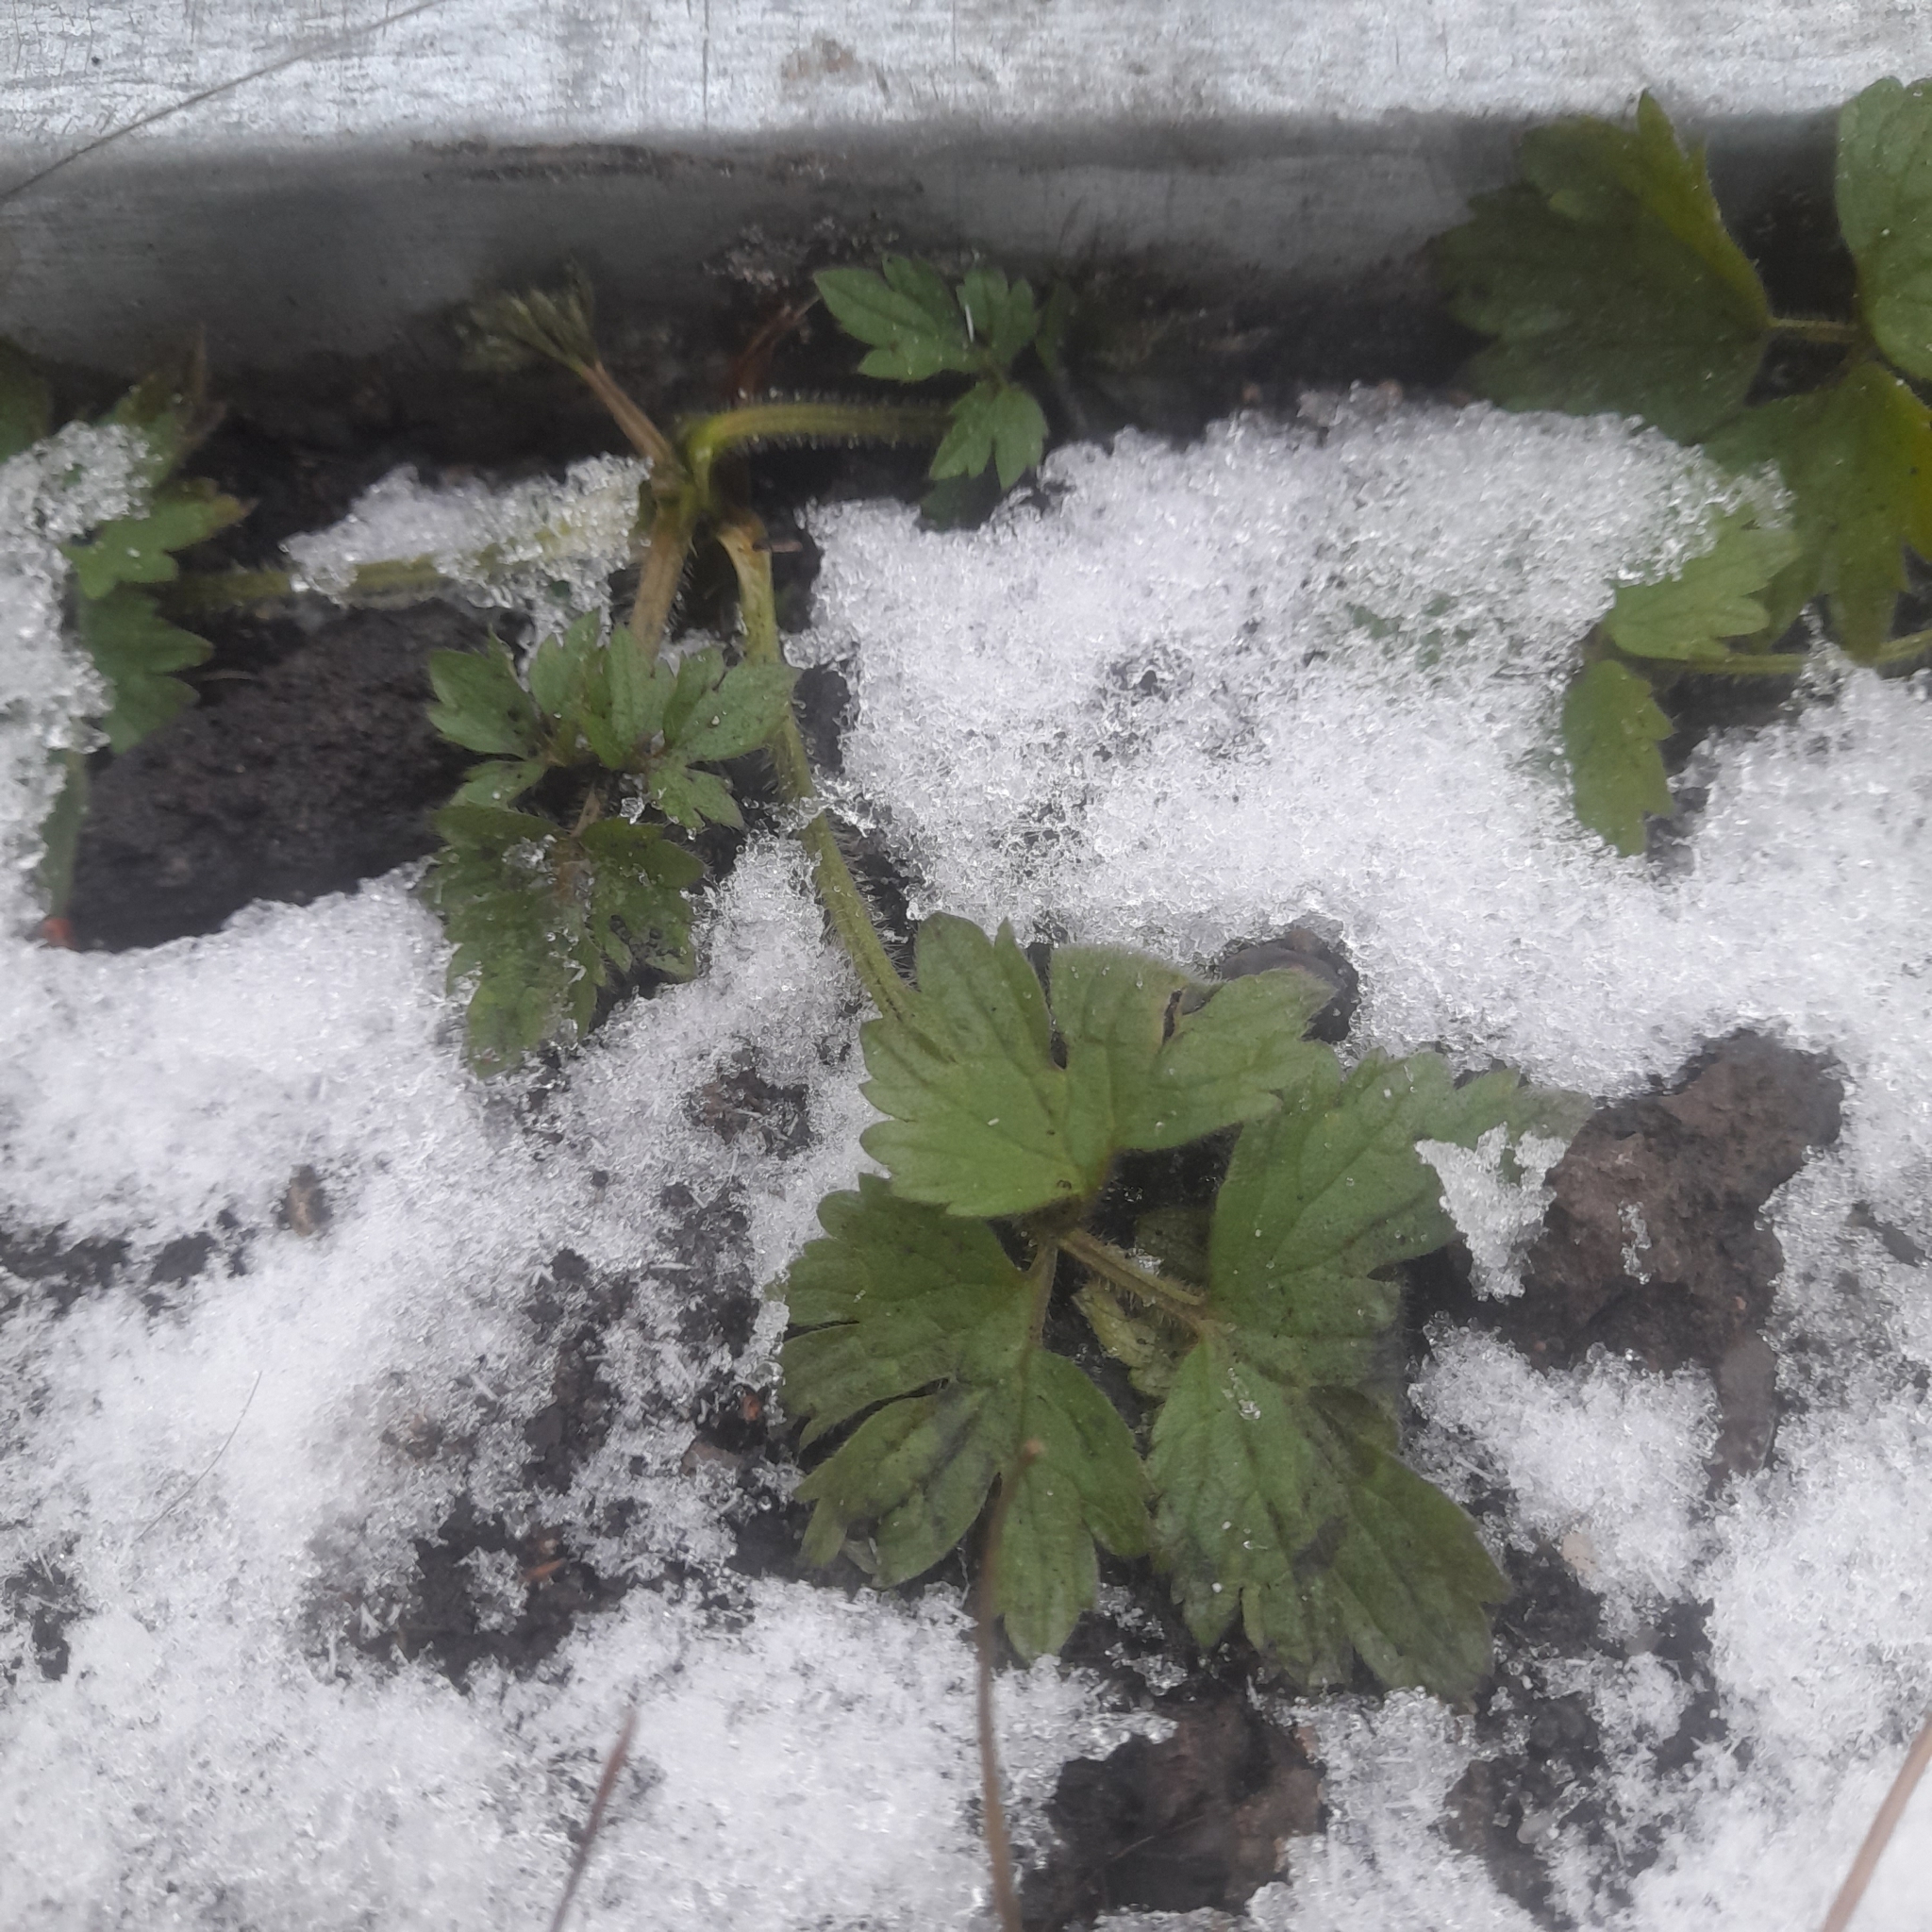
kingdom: Plantae
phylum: Tracheophyta
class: Magnoliopsida
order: Ranunculales
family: Ranunculaceae
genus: Ranunculus
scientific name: Ranunculus repens
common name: Creeping buttercup
